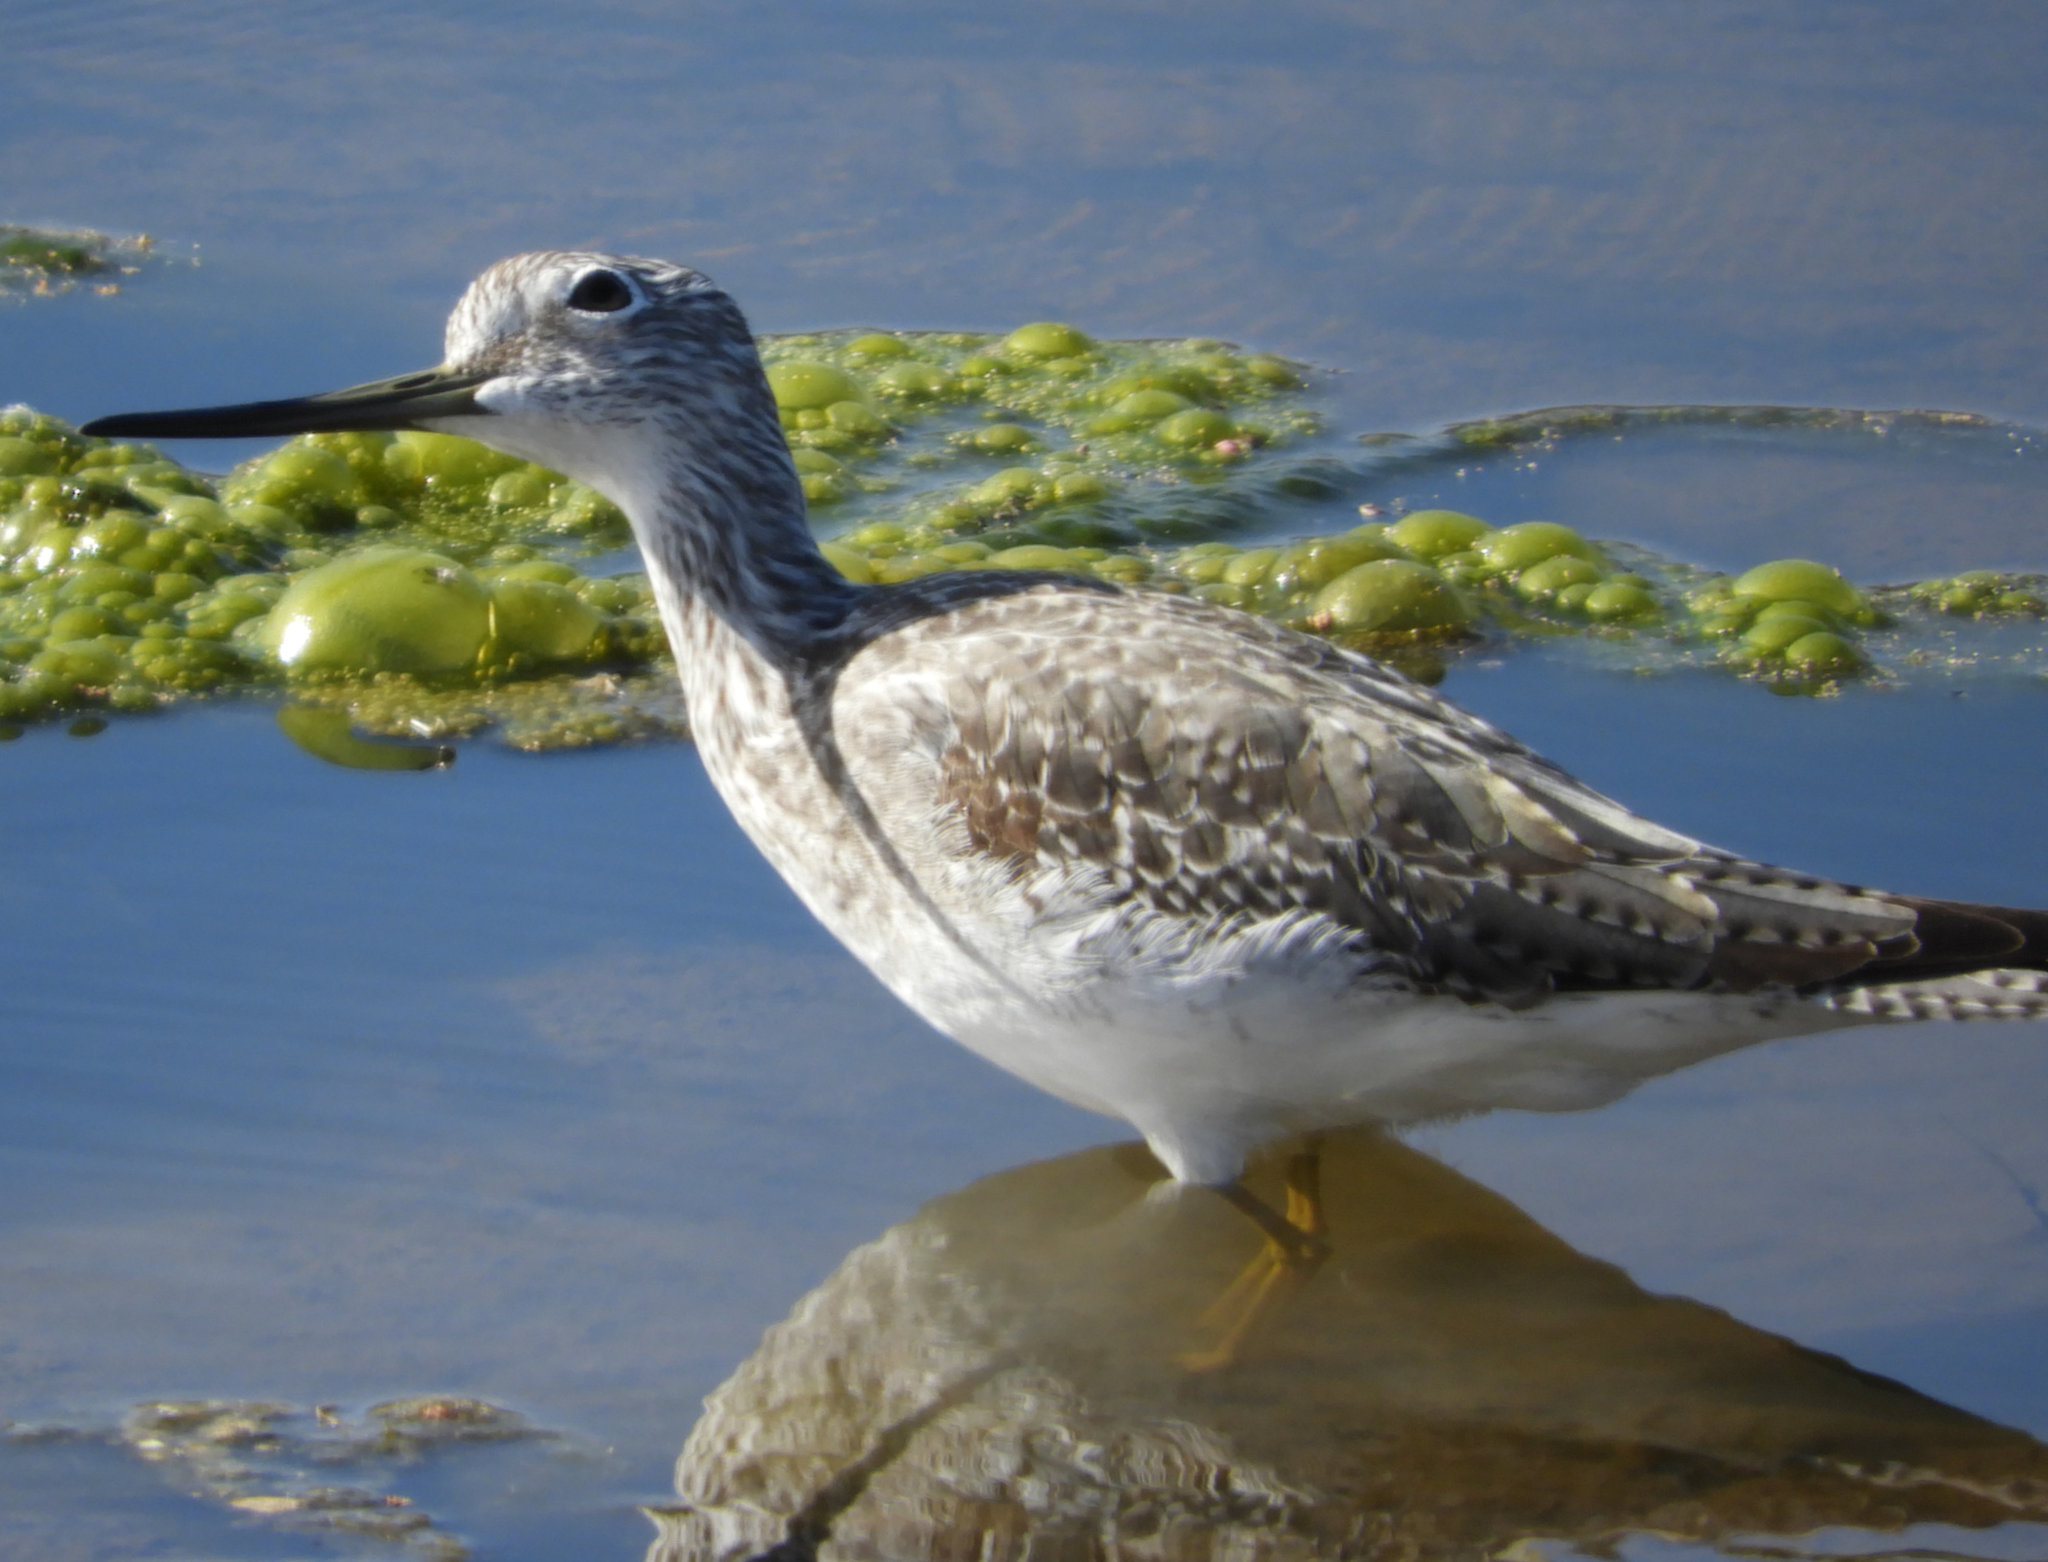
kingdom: Animalia
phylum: Chordata
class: Aves
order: Charadriiformes
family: Scolopacidae
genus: Tringa
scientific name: Tringa melanoleuca
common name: Greater yellowlegs
